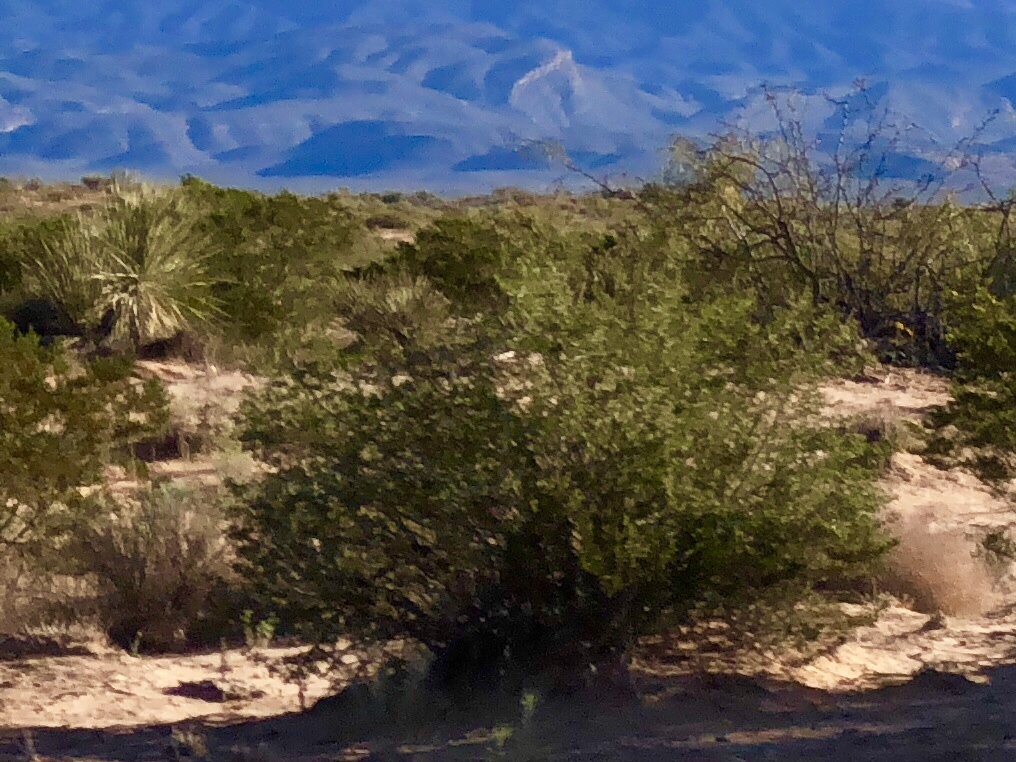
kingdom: Plantae
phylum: Tracheophyta
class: Magnoliopsida
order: Zygophyllales
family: Zygophyllaceae
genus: Larrea
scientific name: Larrea tridentata
